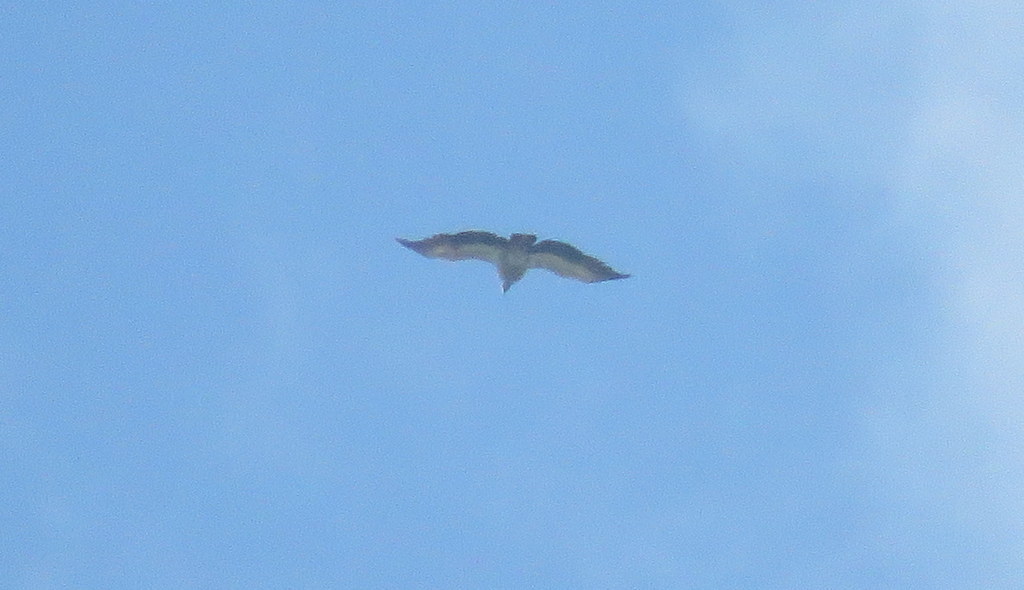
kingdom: Animalia
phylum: Chordata
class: Aves
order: Anseriformes
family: Anhimidae
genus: Chauna
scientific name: Chauna torquata
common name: Southern screamer
